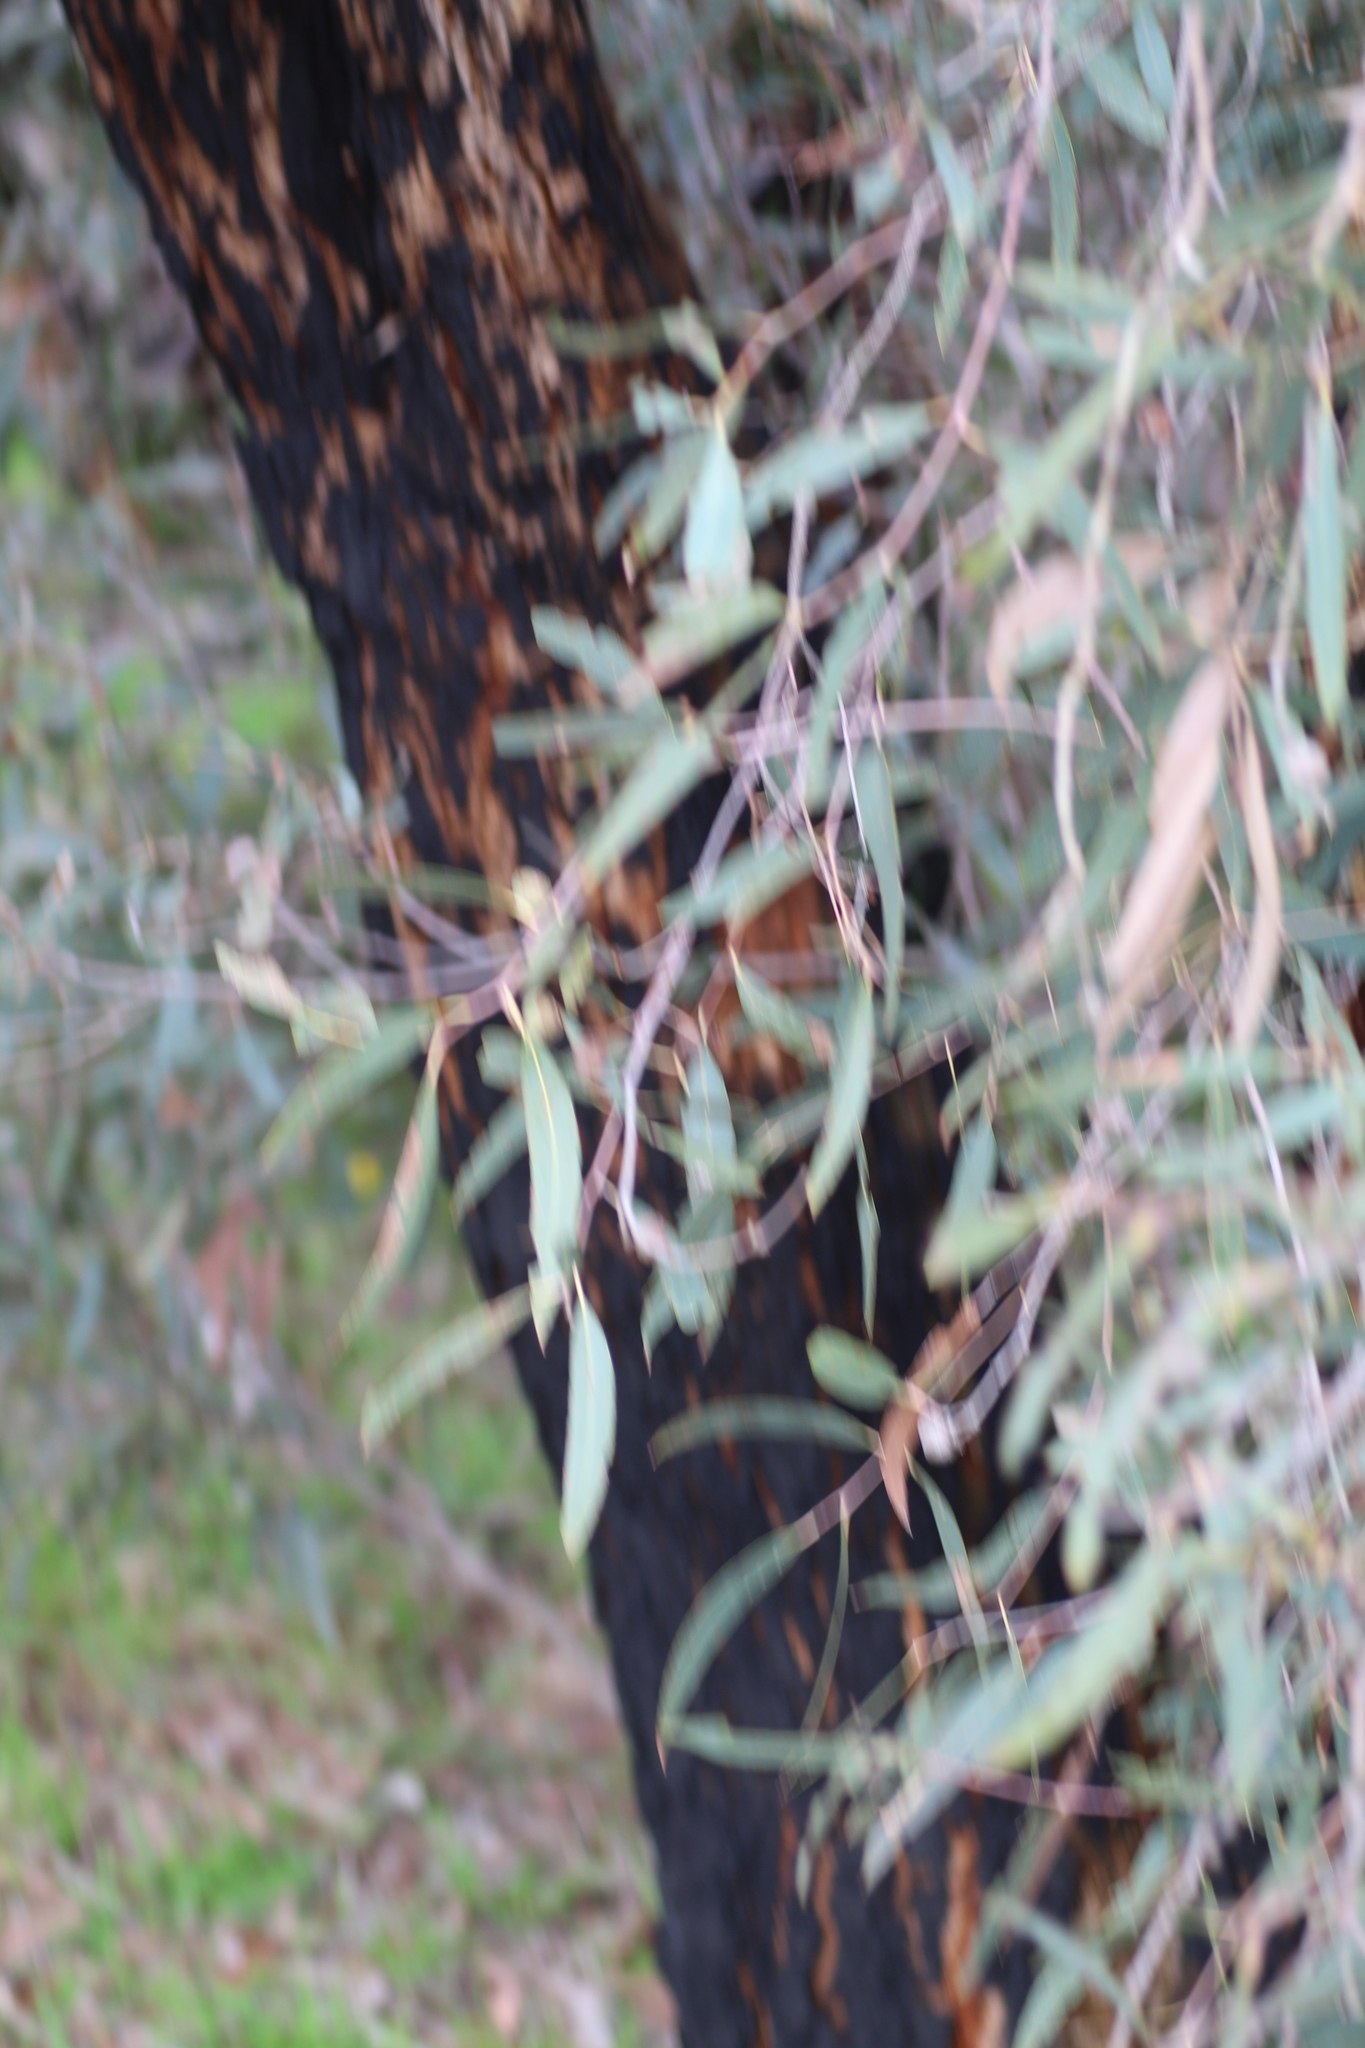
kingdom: Plantae
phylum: Tracheophyta
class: Magnoliopsida
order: Myrtales
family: Myrtaceae
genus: Eucalyptus
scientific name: Eucalyptus todtiana
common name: Coastal blackbutt
